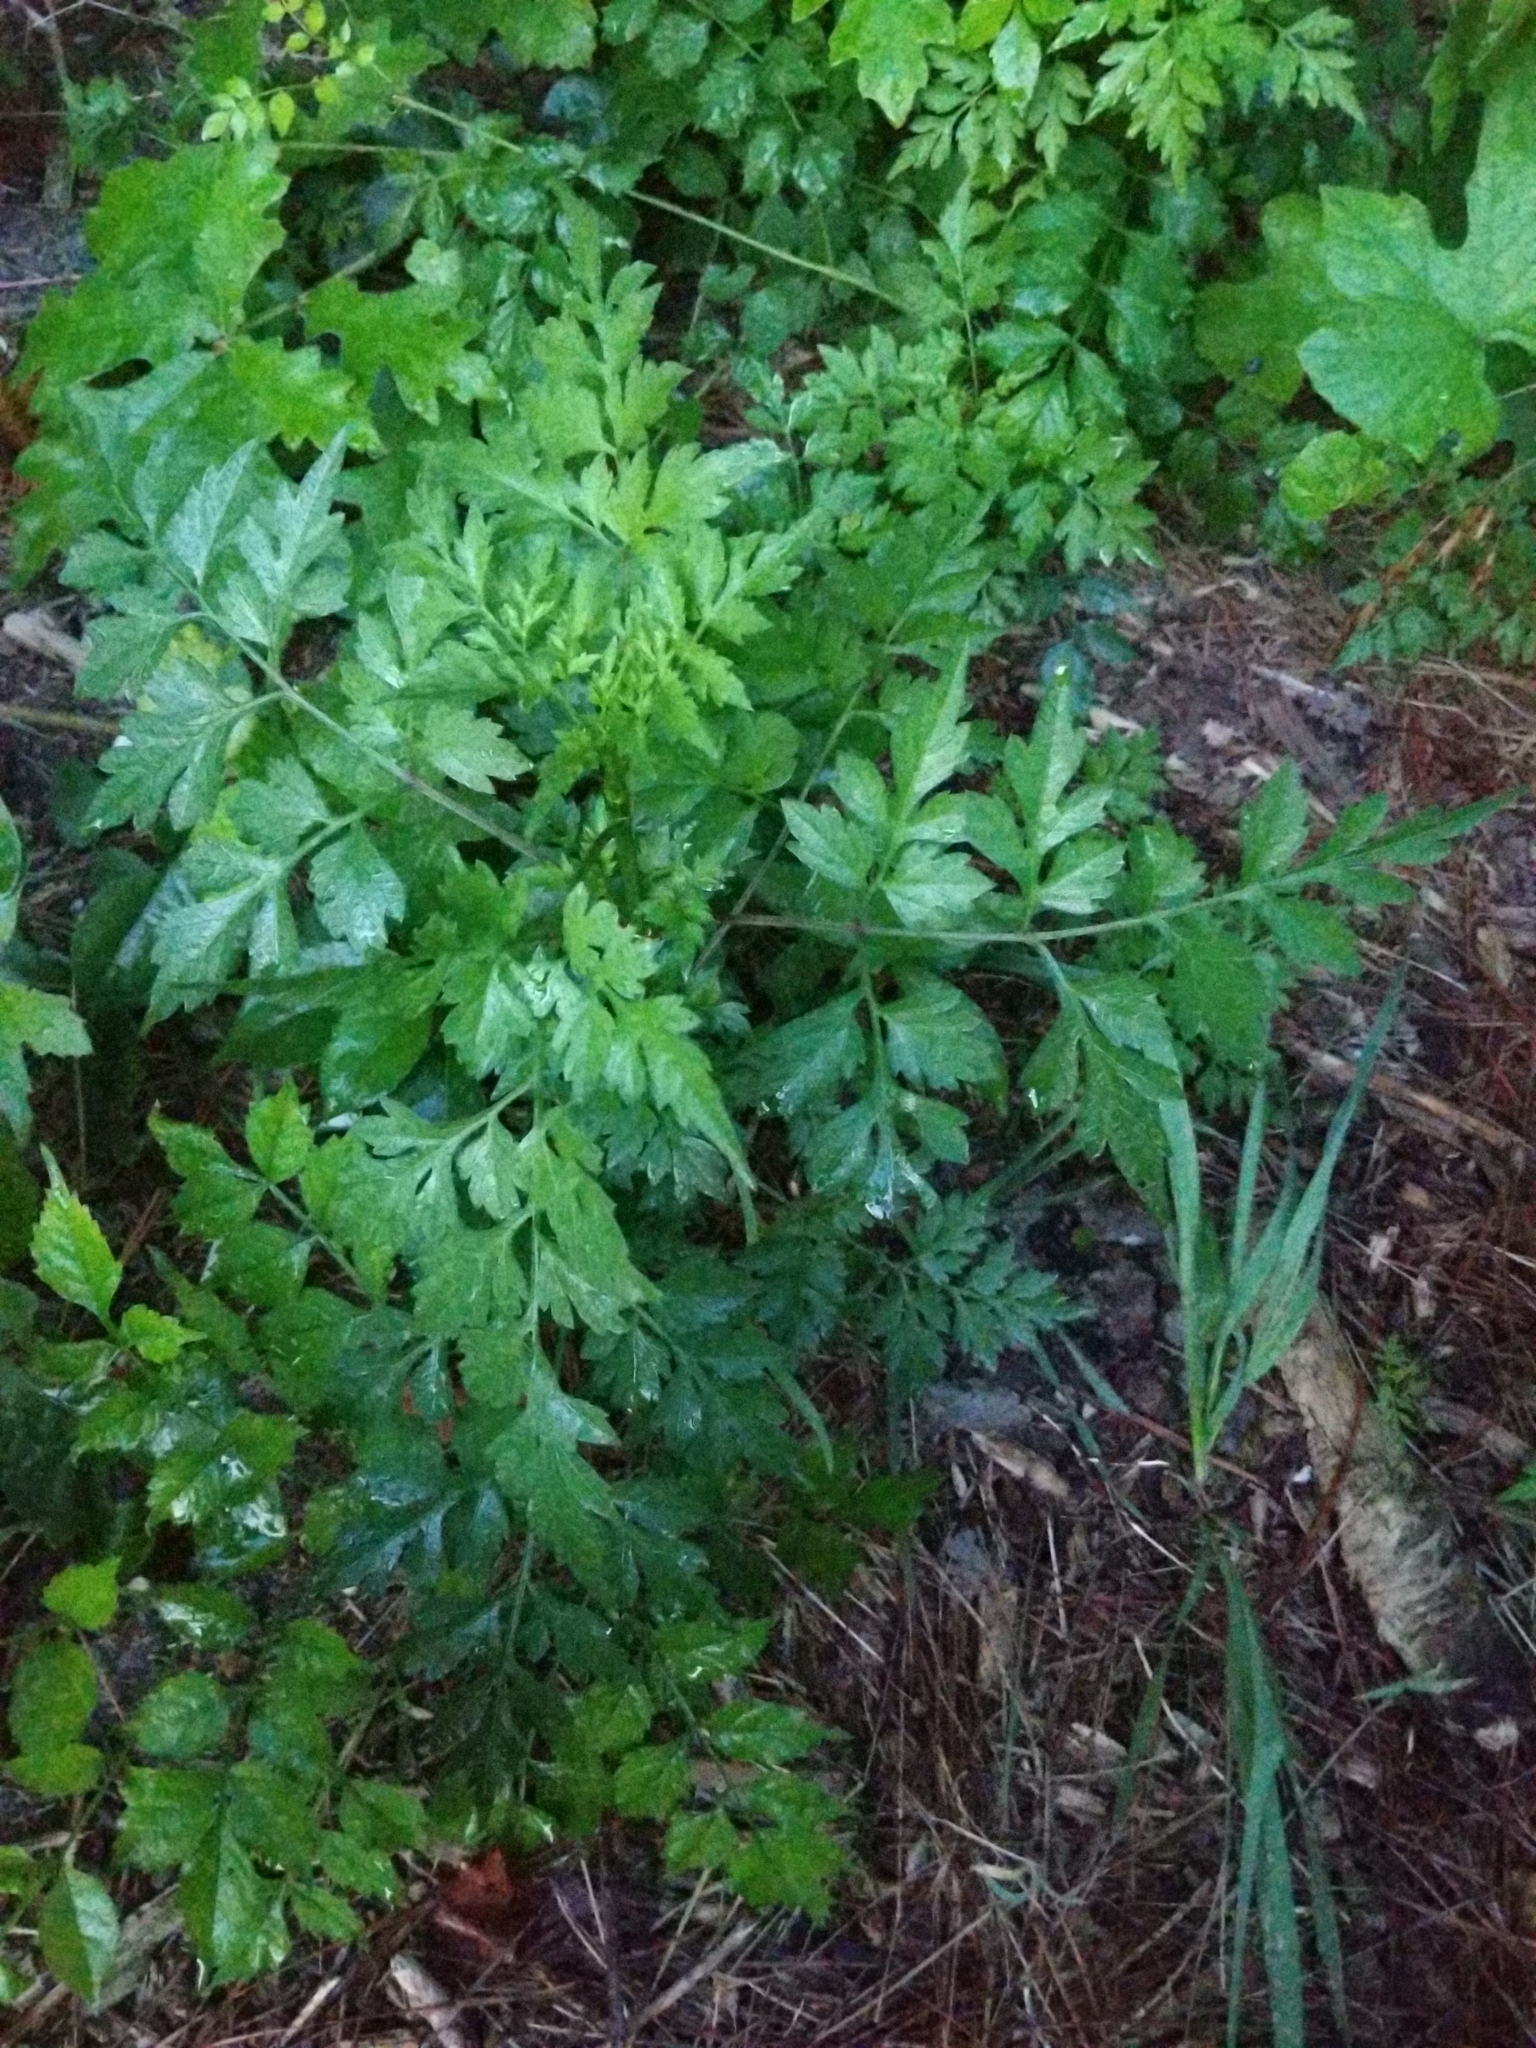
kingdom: Plantae
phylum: Tracheophyta
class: Magnoliopsida
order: Asterales
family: Asteraceae
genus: Bidens
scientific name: Bidens bipinnata
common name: Spanish-needles
